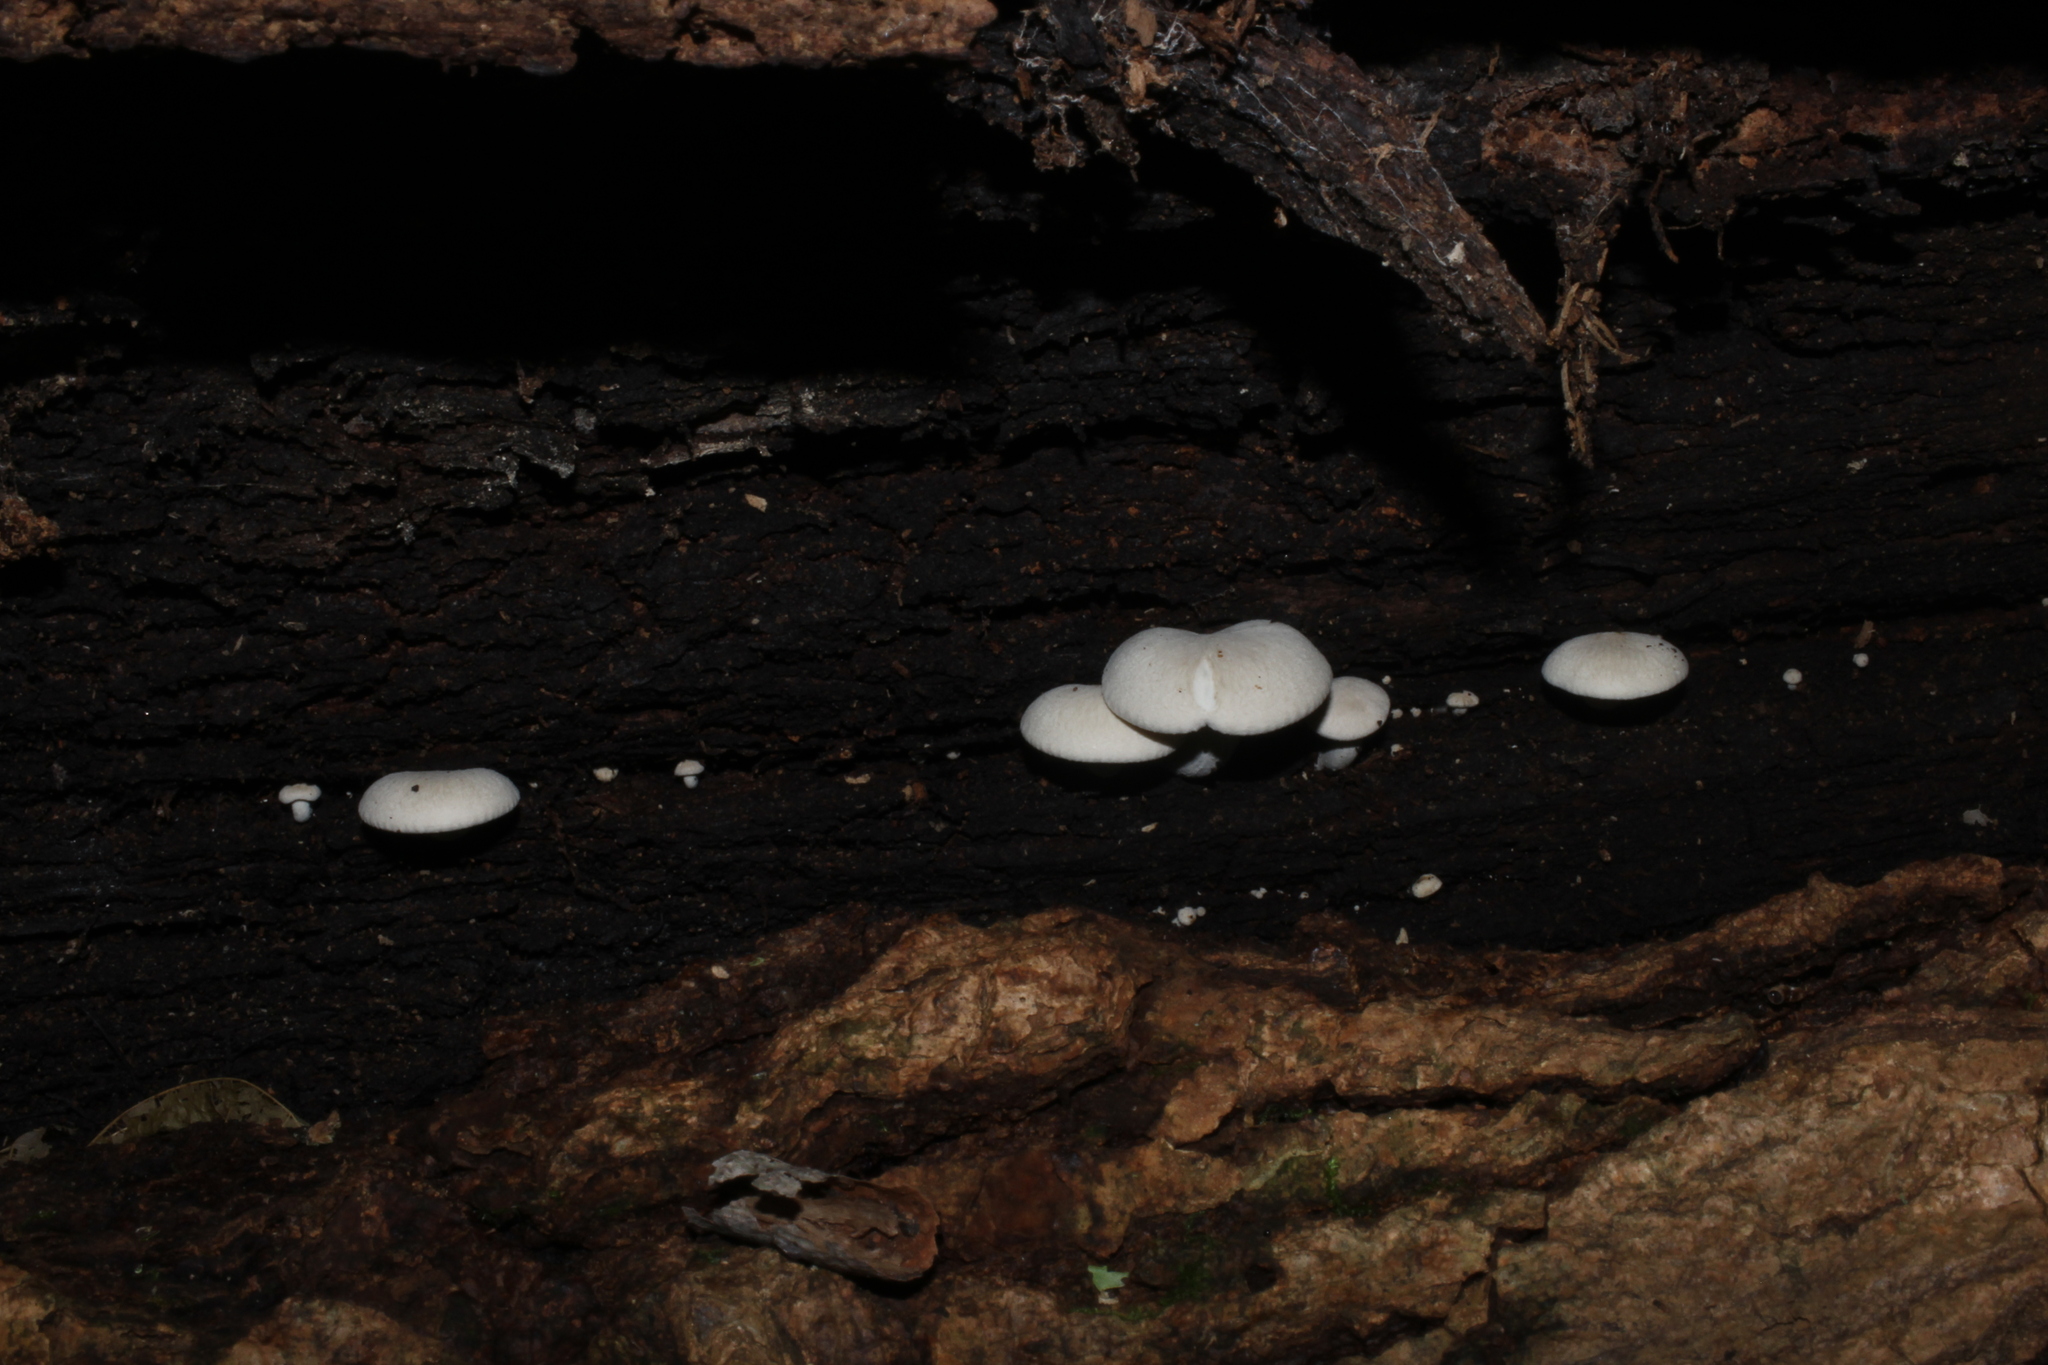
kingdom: Fungi
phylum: Basidiomycota
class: Agaricomycetes
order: Agaricales
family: Lyophyllaceae
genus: Ossicaulis
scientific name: Ossicaulis lignatilis
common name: Mealy oyster
